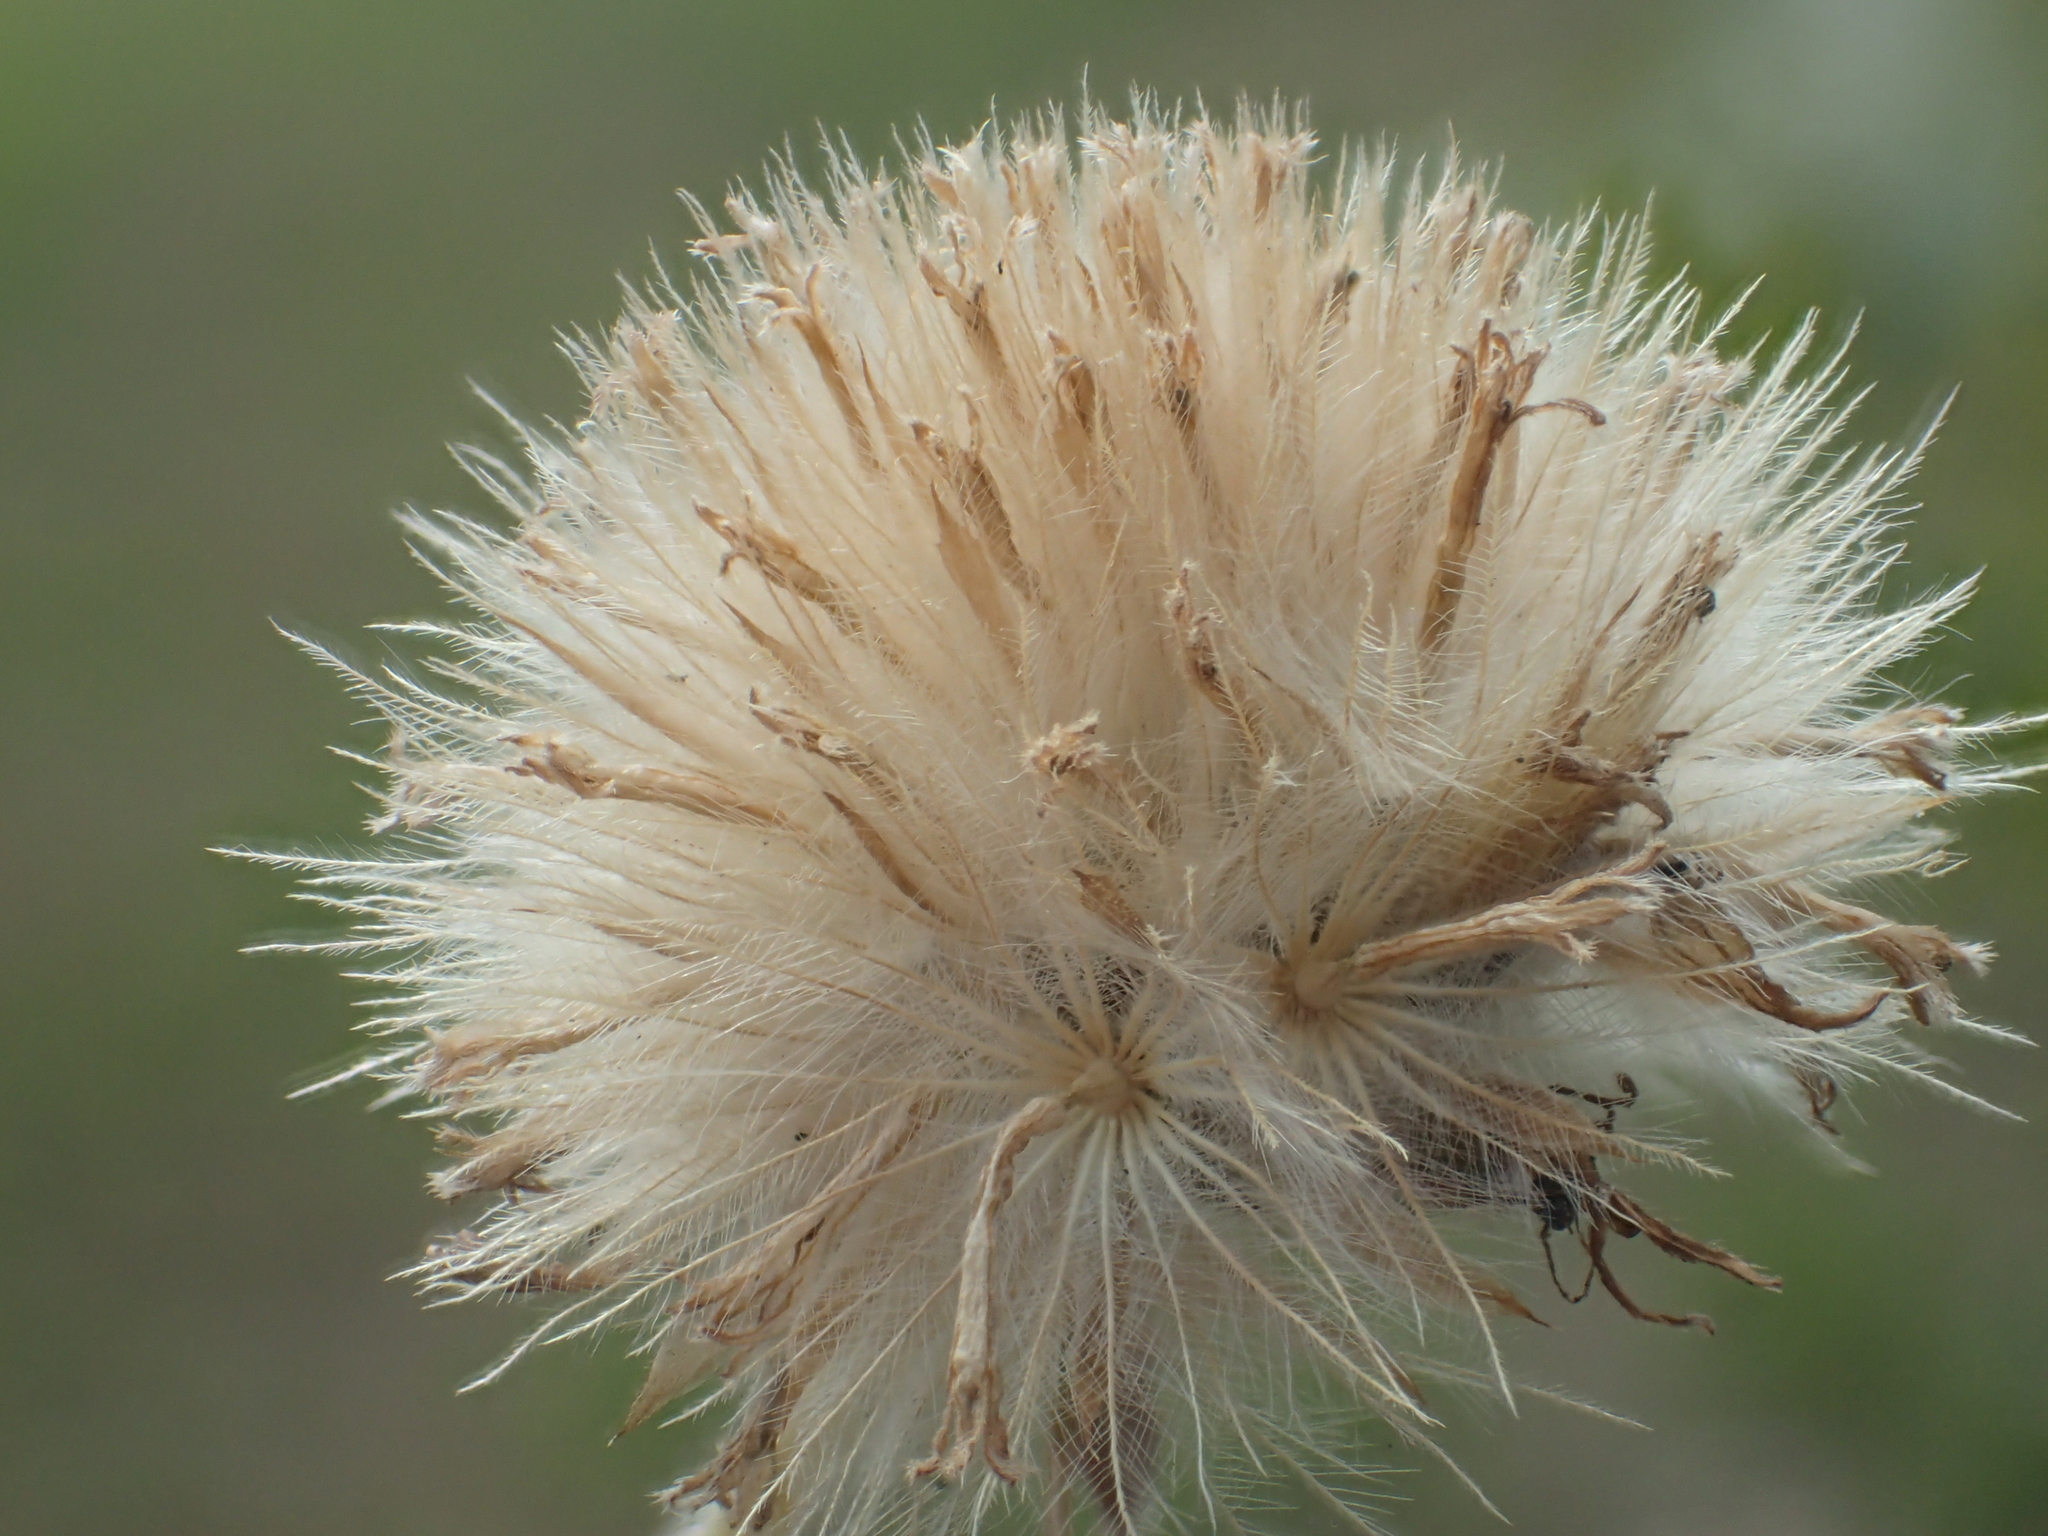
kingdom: Plantae
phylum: Tracheophyta
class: Magnoliopsida
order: Asterales
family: Asteraceae
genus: Tridax
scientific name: Tridax procumbens
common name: Coatbuttons
